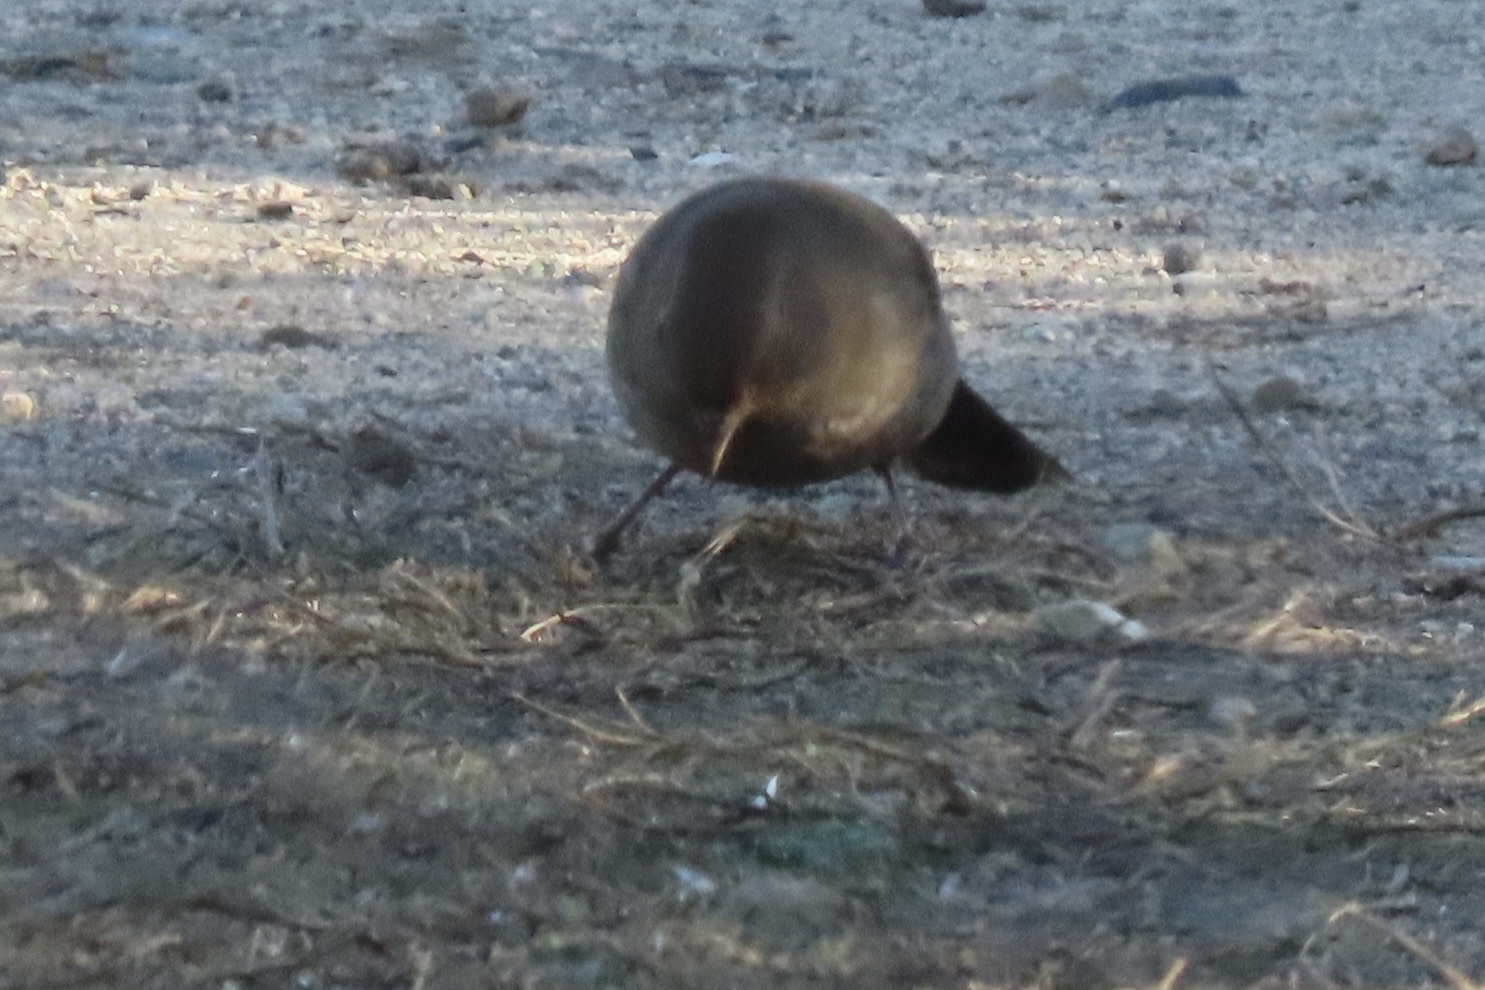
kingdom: Animalia
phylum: Chordata
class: Aves
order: Passeriformes
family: Passerellidae
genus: Melozone
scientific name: Melozone crissalis
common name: California towhee
